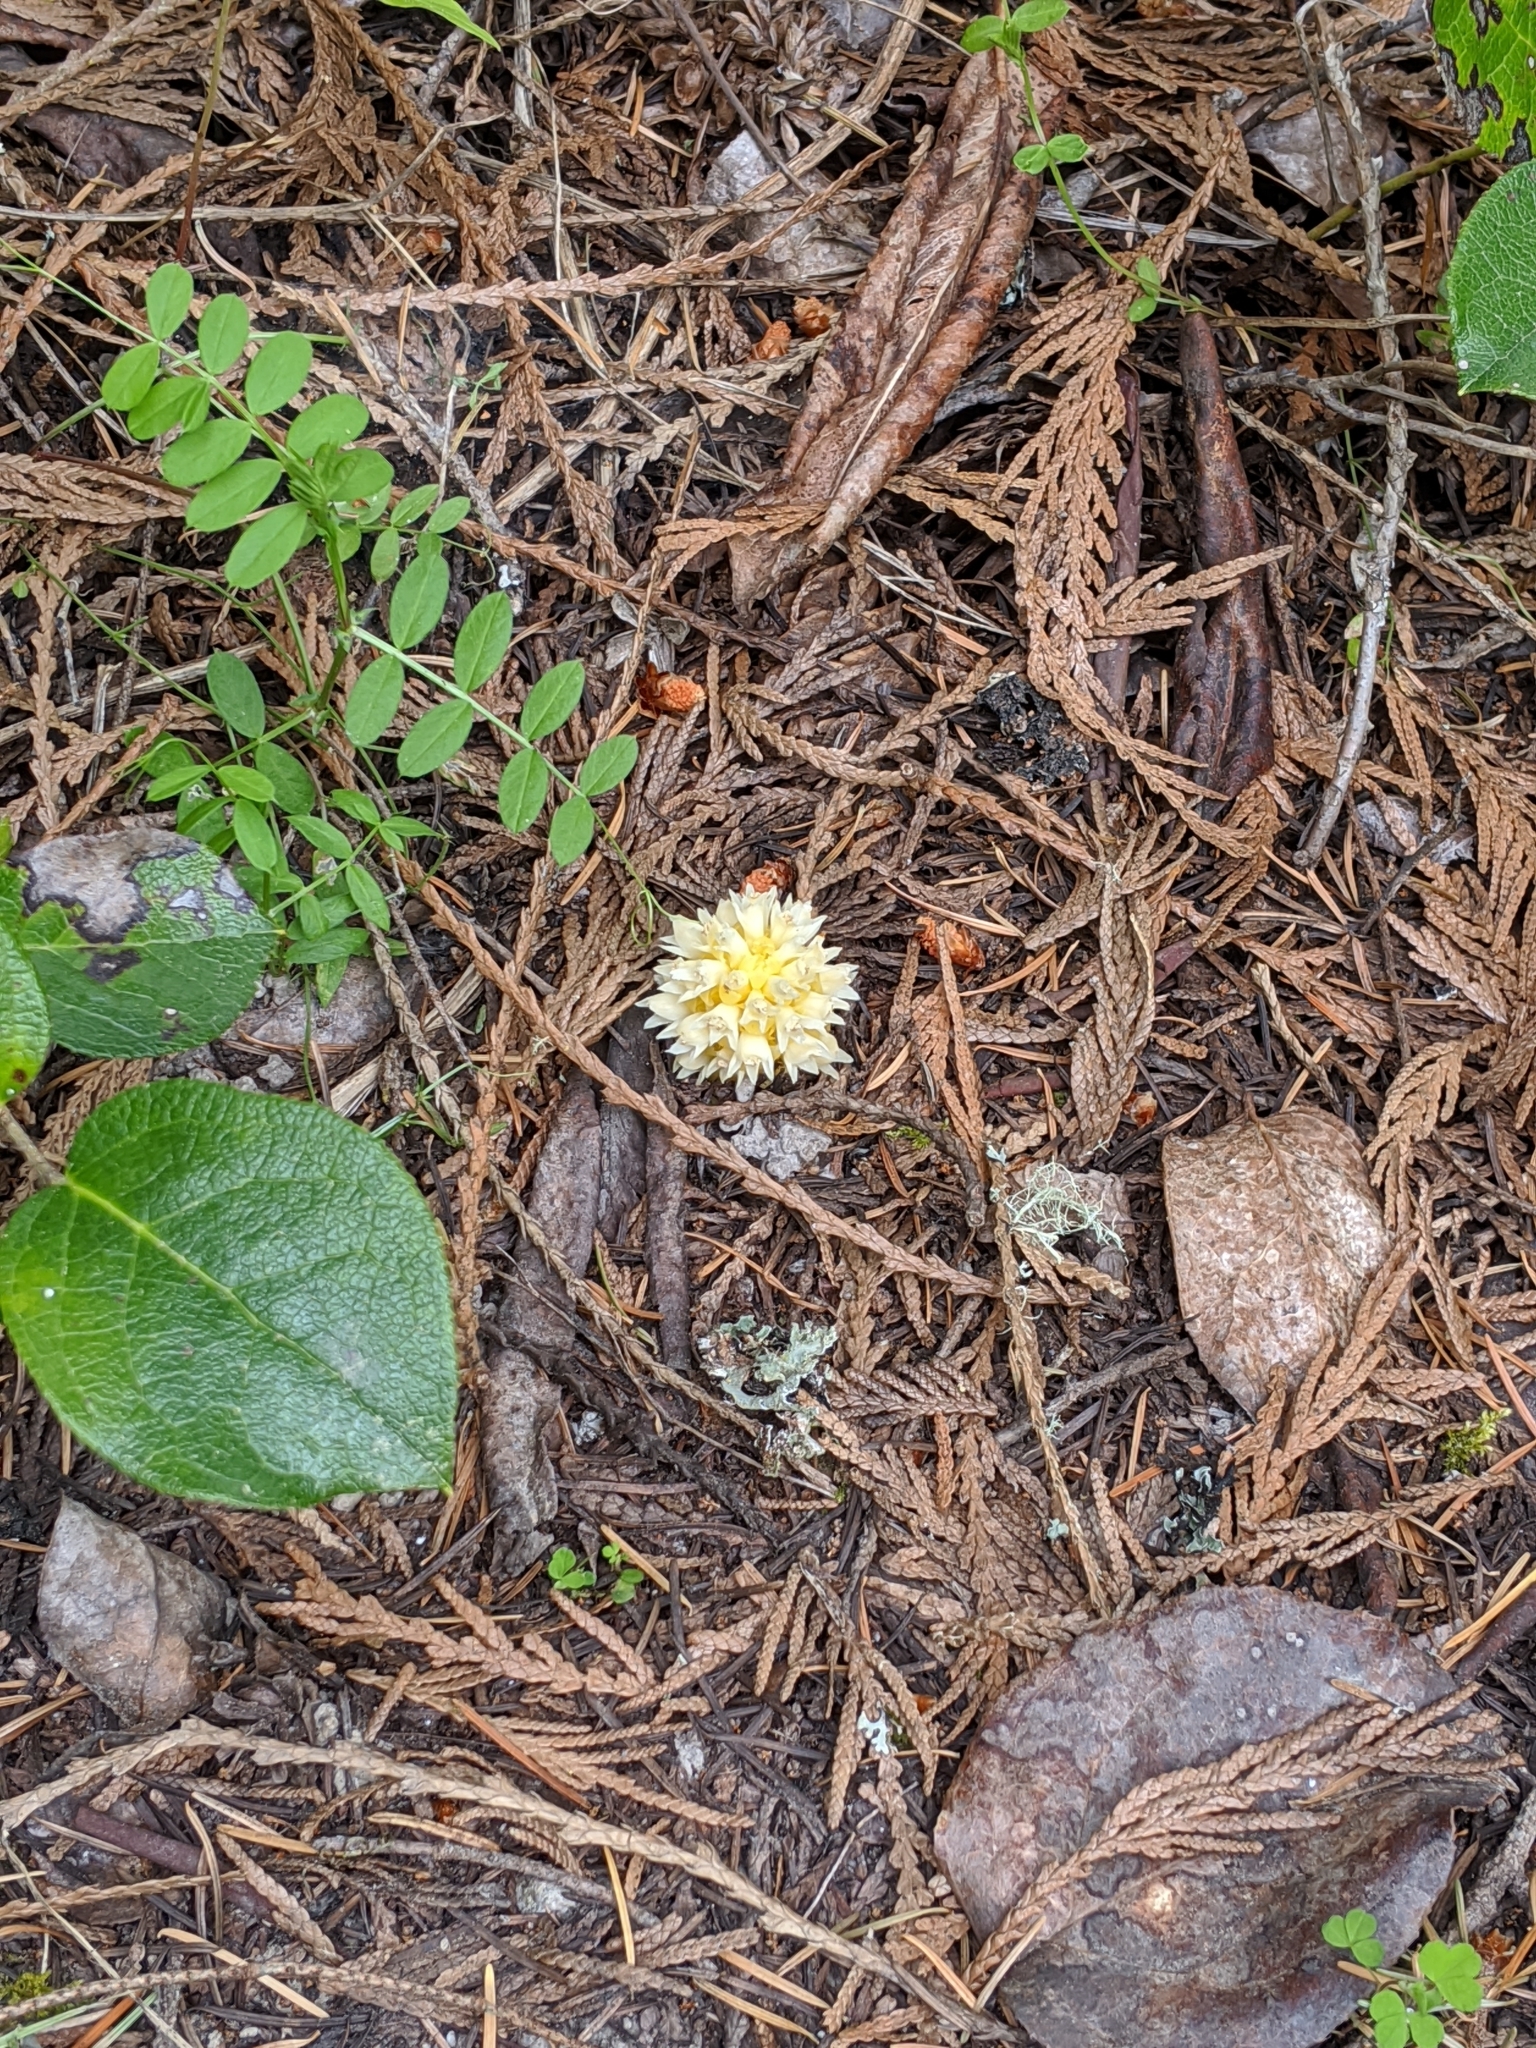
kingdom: Plantae
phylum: Tracheophyta
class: Magnoliopsida
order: Lamiales
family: Orobanchaceae
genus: Kopsiopsis
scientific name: Kopsiopsis hookeri
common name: Hooker's groundcone
